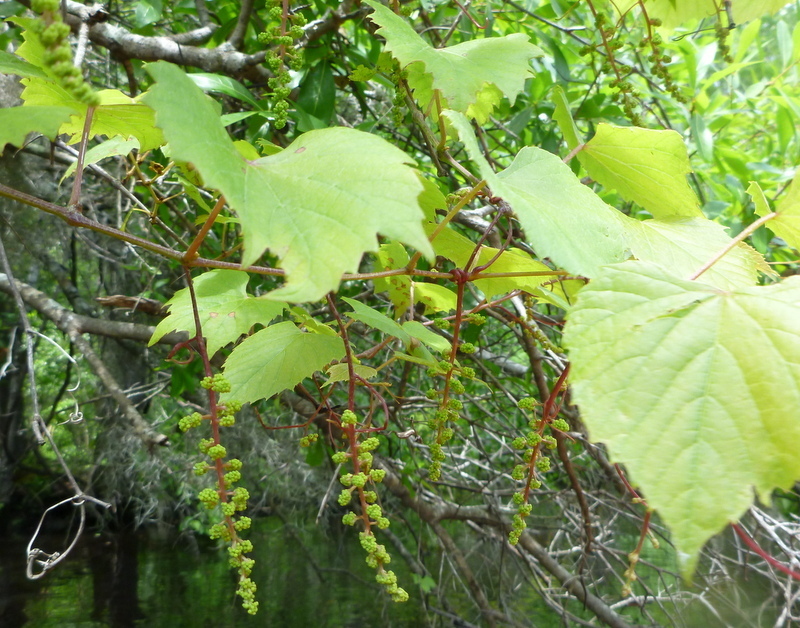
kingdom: Plantae
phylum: Tracheophyta
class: Magnoliopsida
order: Vitales
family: Vitaceae
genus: Vitis
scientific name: Vitis rotundifolia
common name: Muscadine grape
